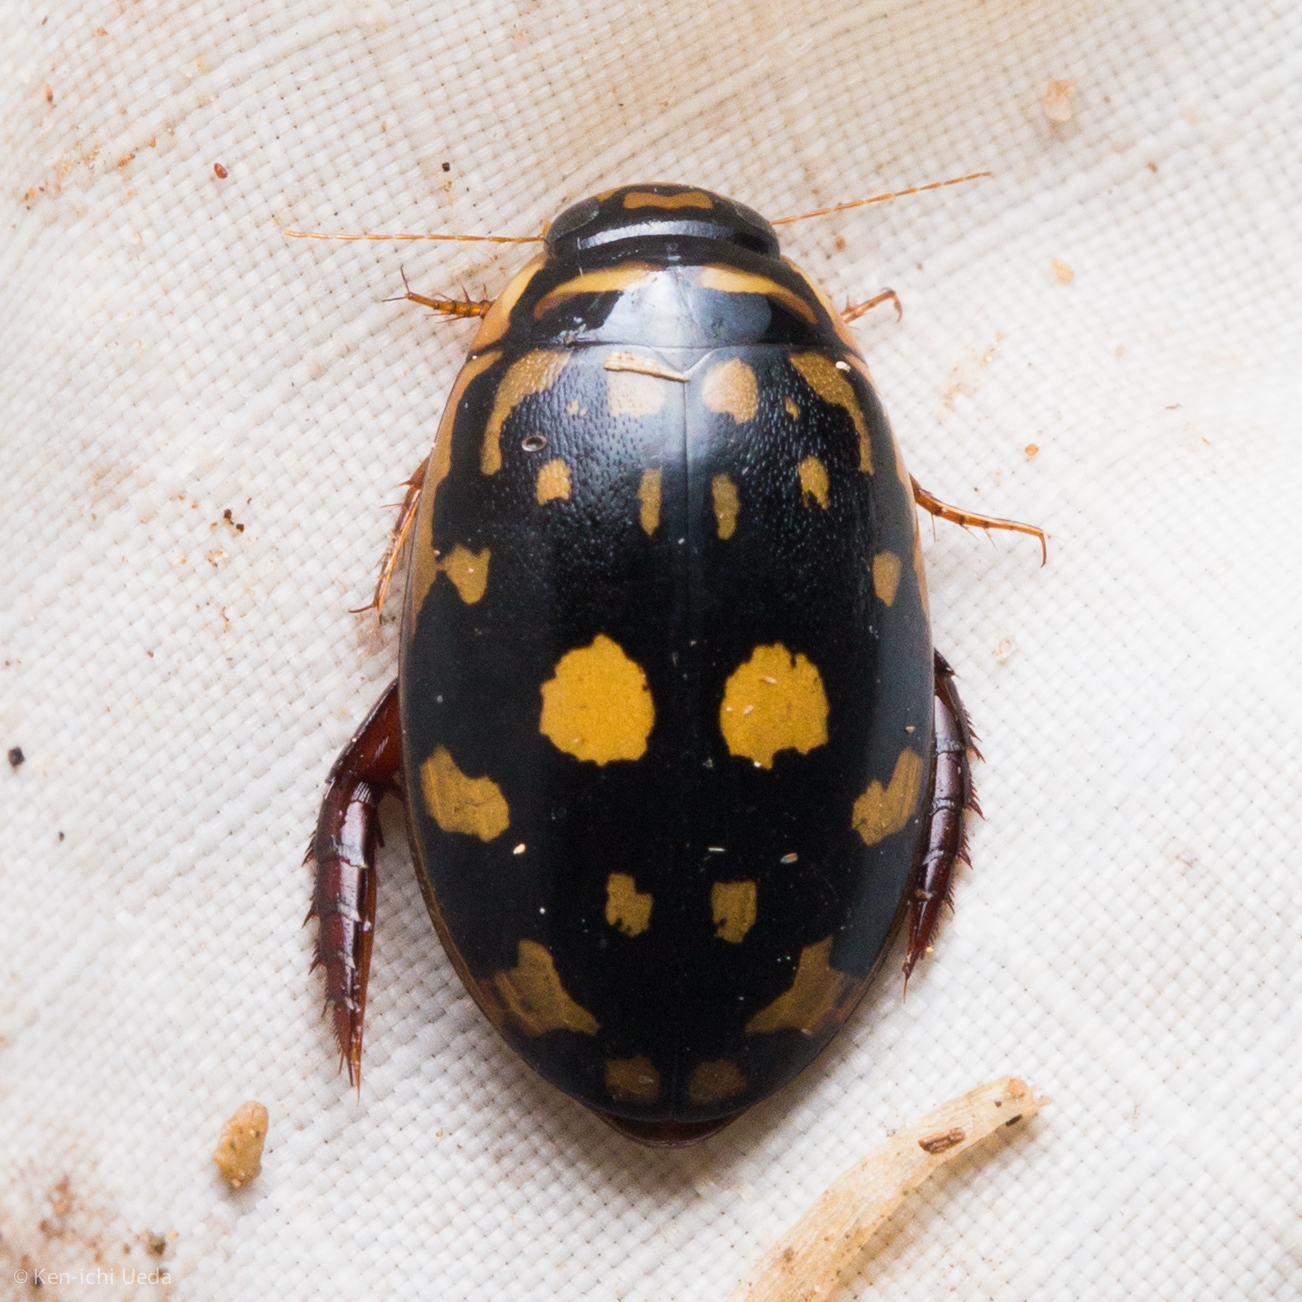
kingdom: Animalia
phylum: Arthropoda
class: Insecta
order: Coleoptera
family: Dytiscidae
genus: Thermonectus
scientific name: Thermonectus marmoratus
